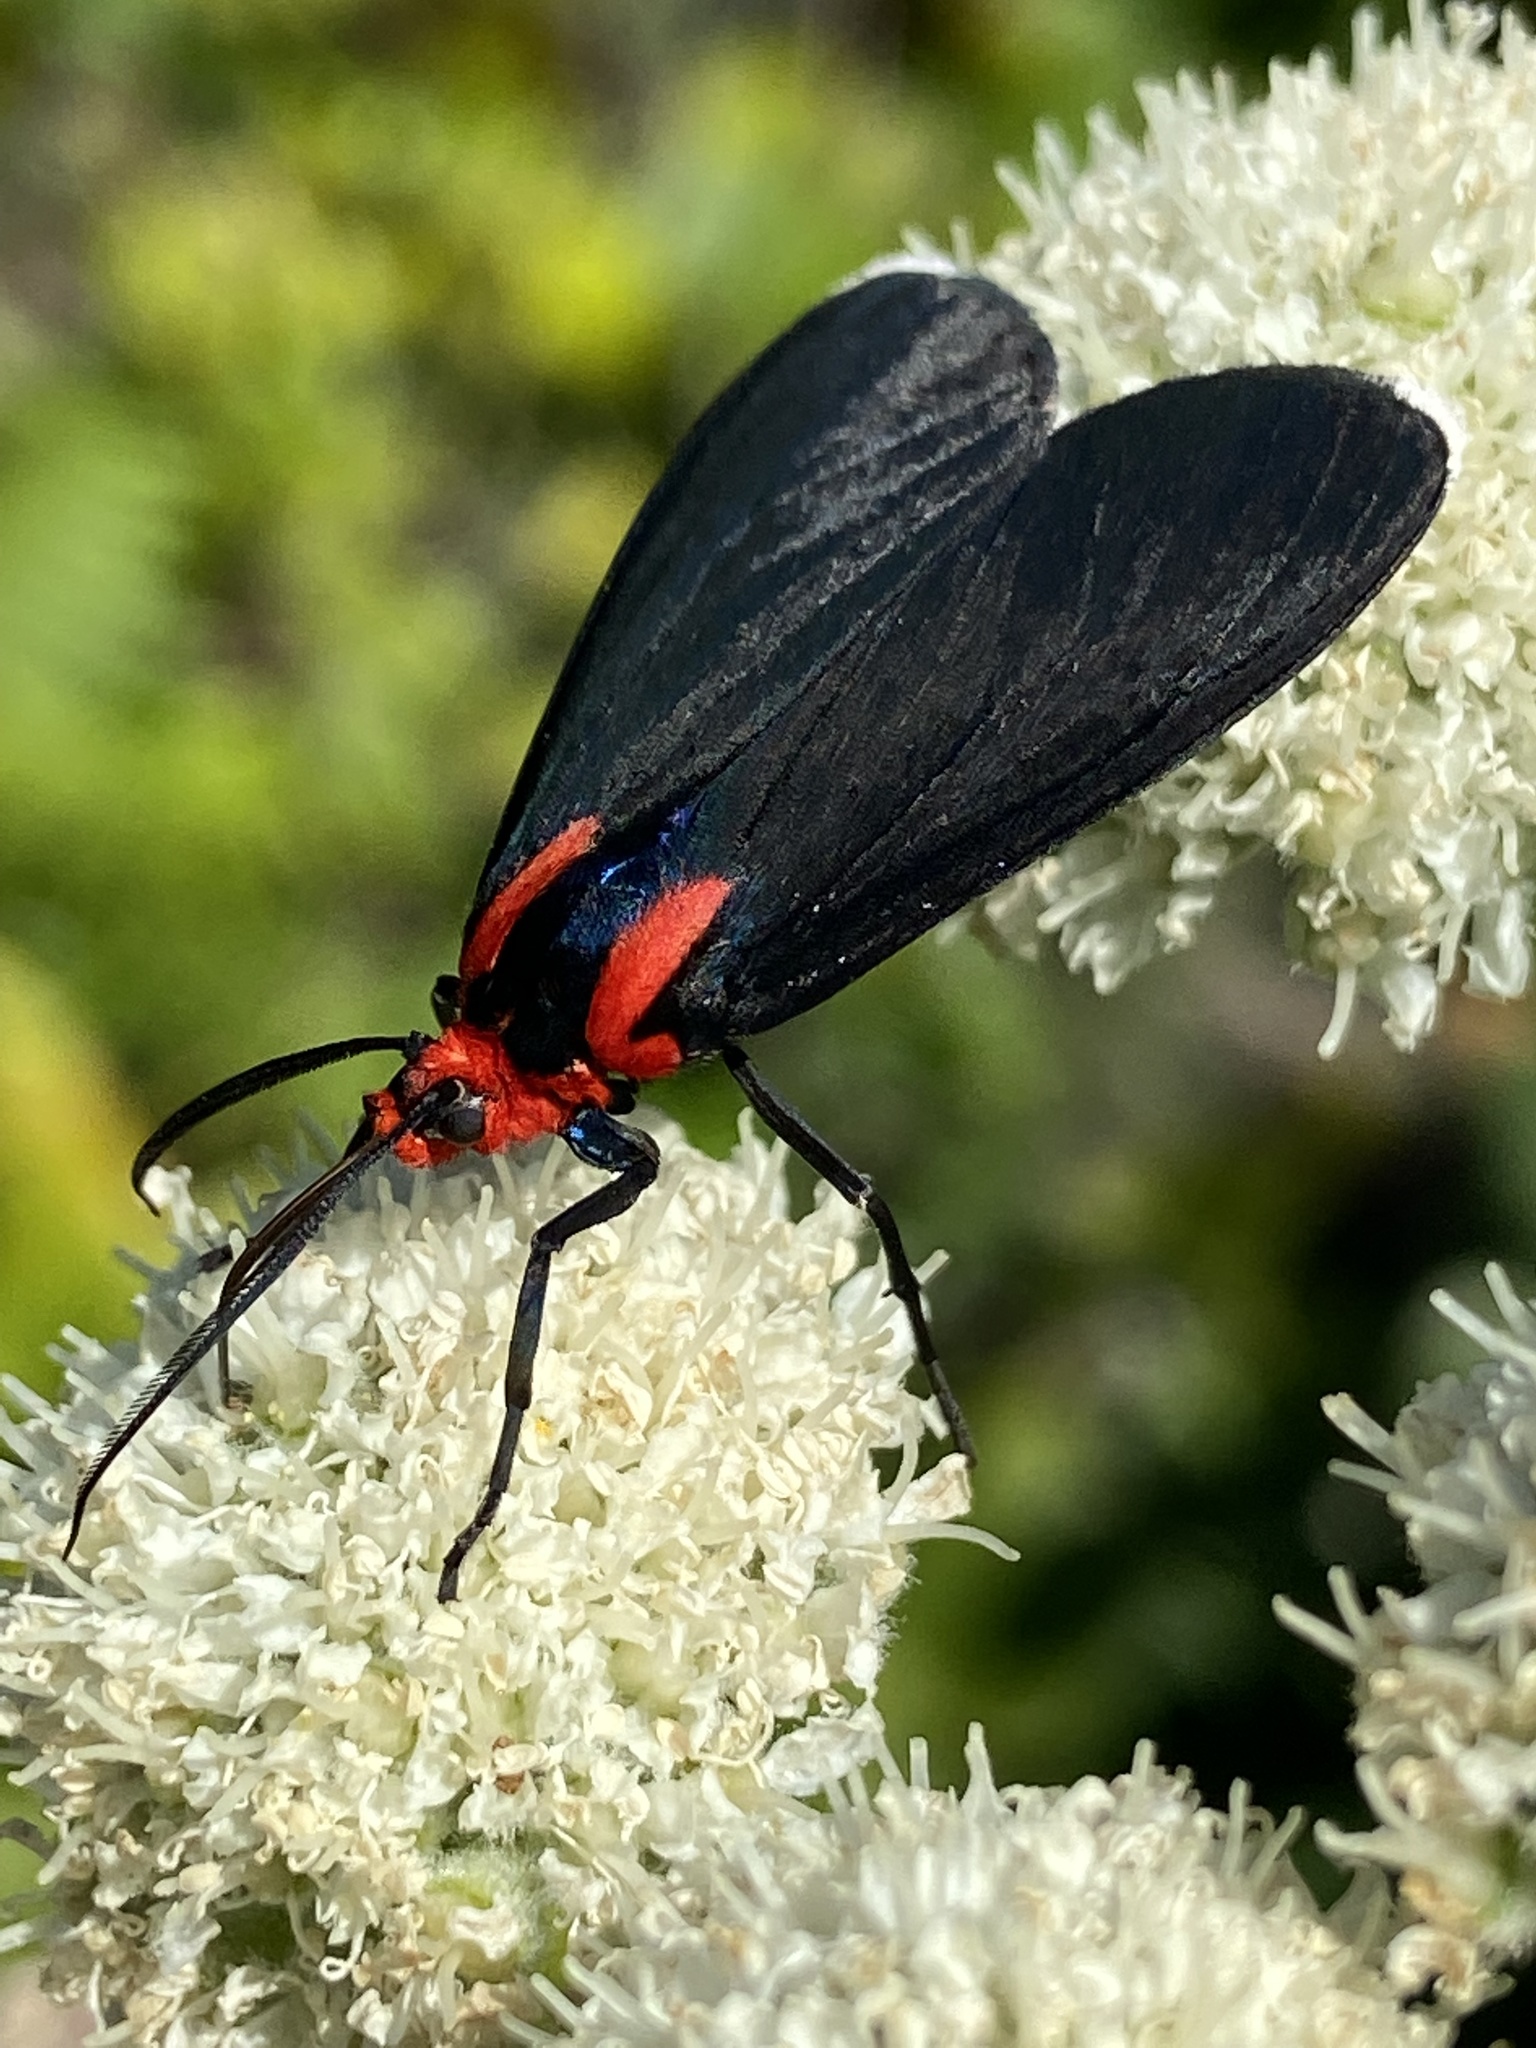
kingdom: Animalia
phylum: Arthropoda
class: Insecta
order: Lepidoptera
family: Erebidae
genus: Ctenucha
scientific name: Ctenucha rubroscapus
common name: Red-shouldered ctenucha
